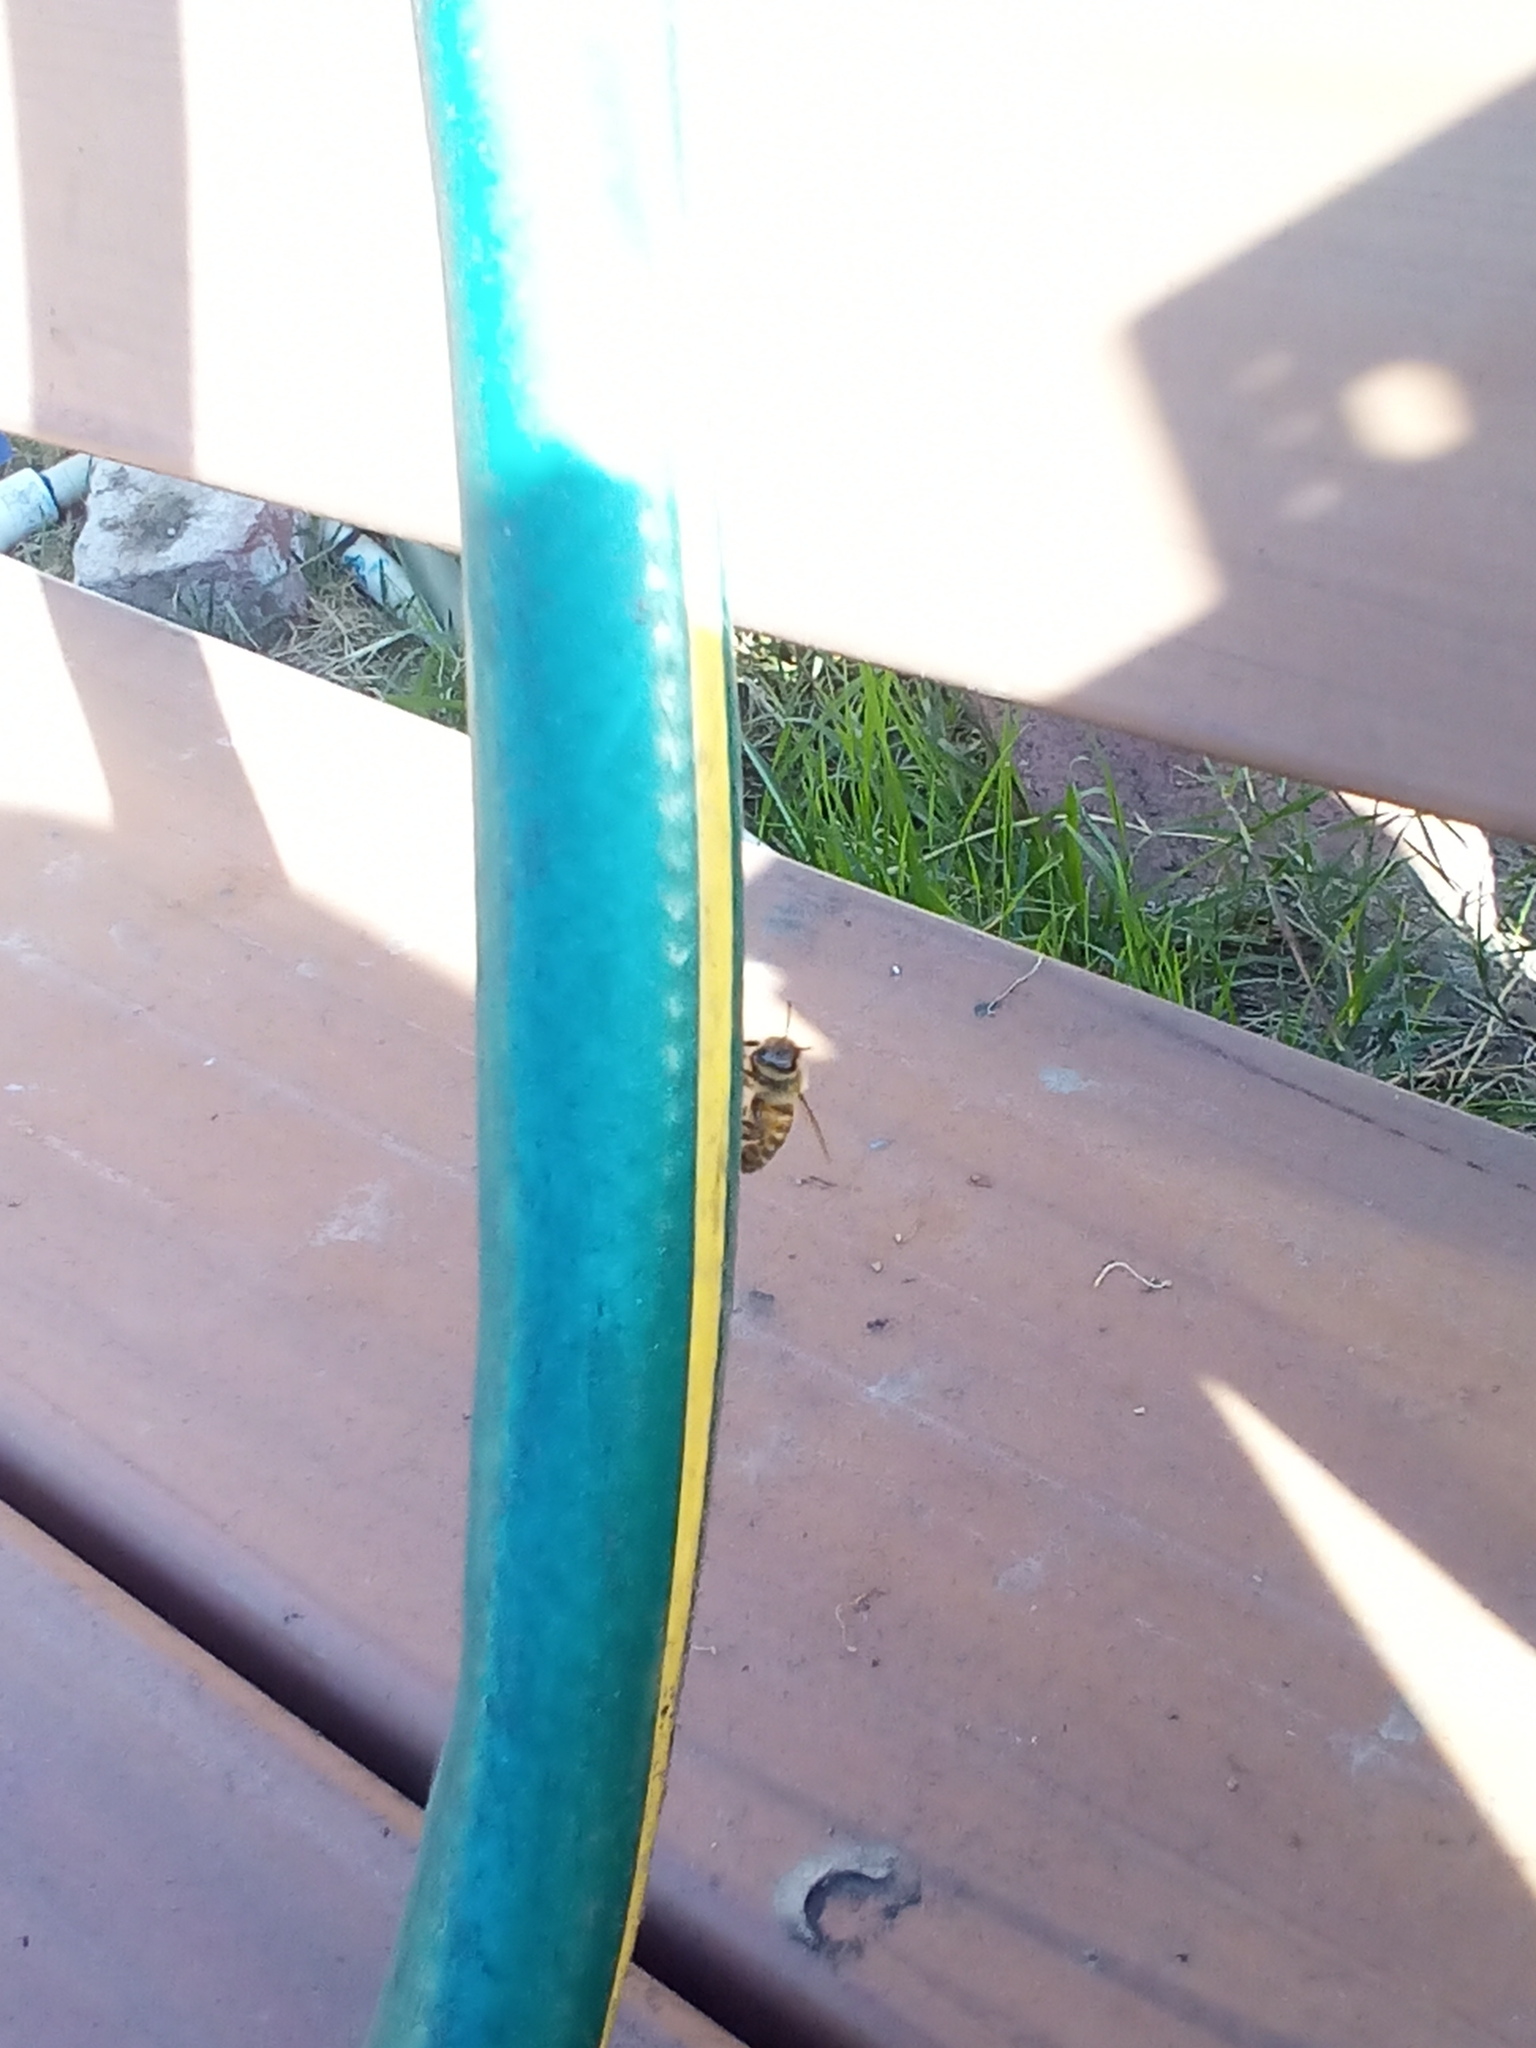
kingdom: Animalia
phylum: Arthropoda
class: Insecta
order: Hymenoptera
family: Apidae
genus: Apis
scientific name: Apis mellifera
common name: Honey bee
